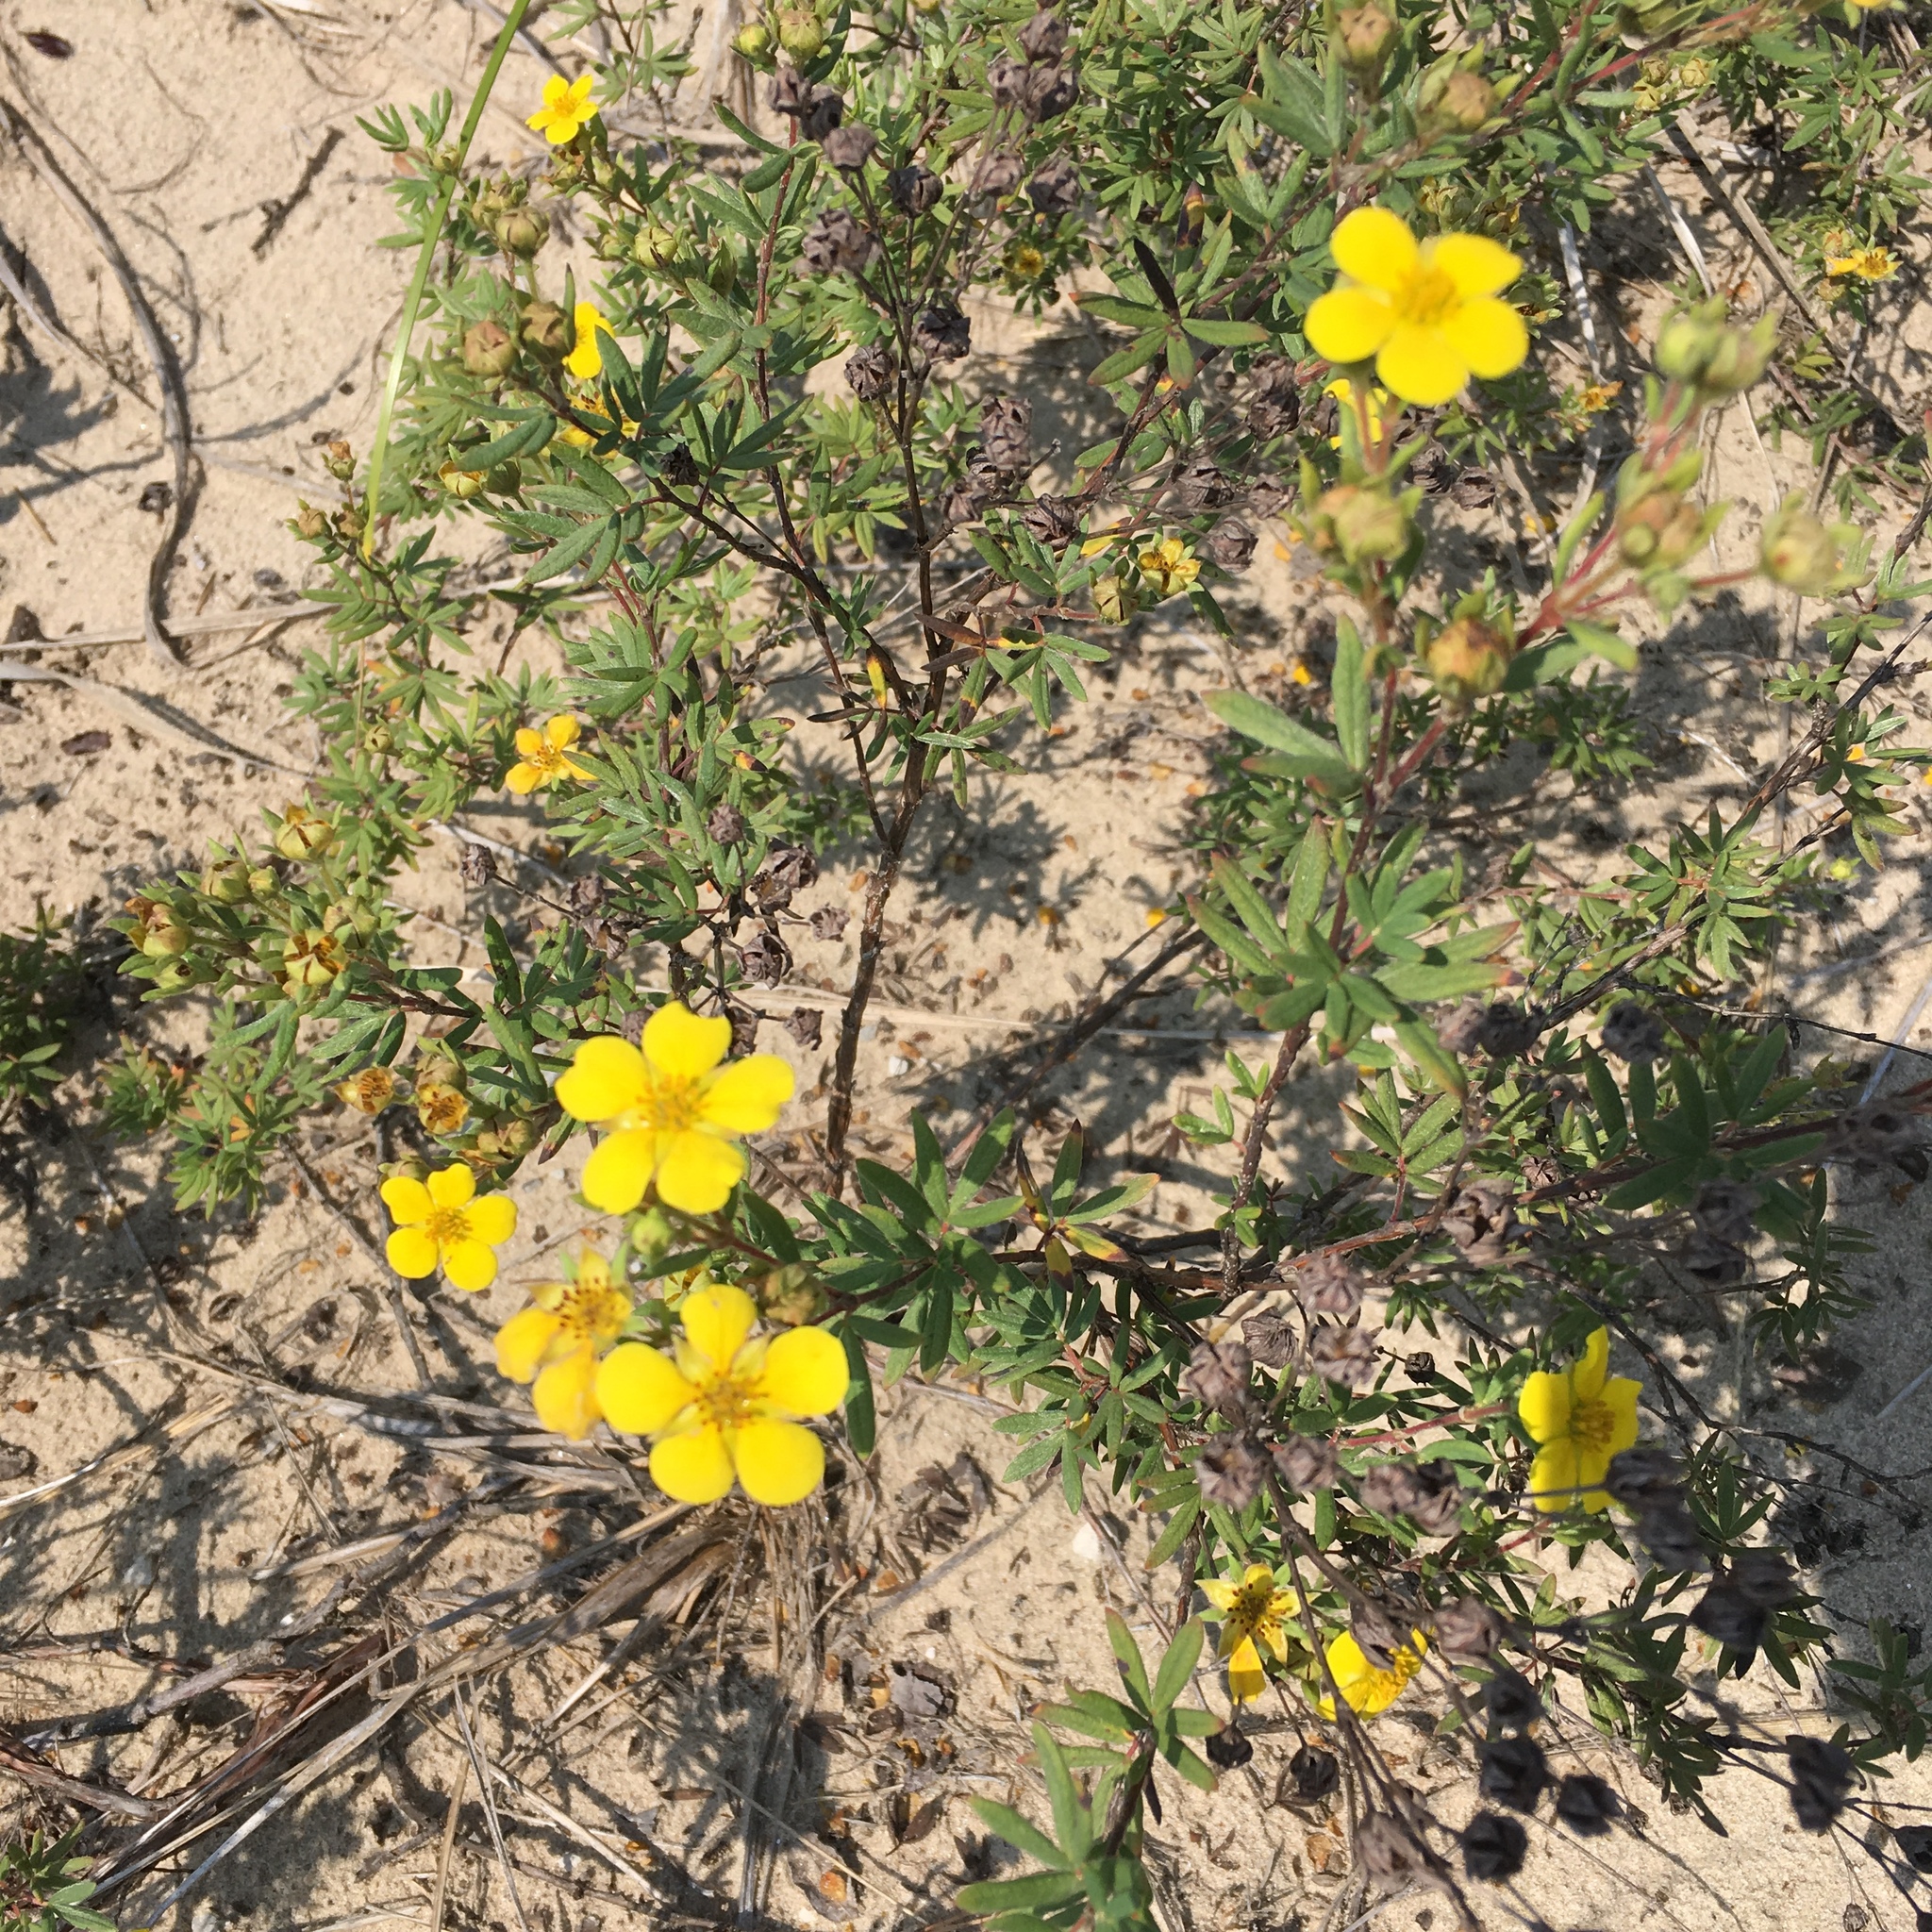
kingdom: Plantae
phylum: Tracheophyta
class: Magnoliopsida
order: Rosales
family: Rosaceae
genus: Dasiphora
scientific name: Dasiphora fruticosa
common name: Shrubby cinquefoil
